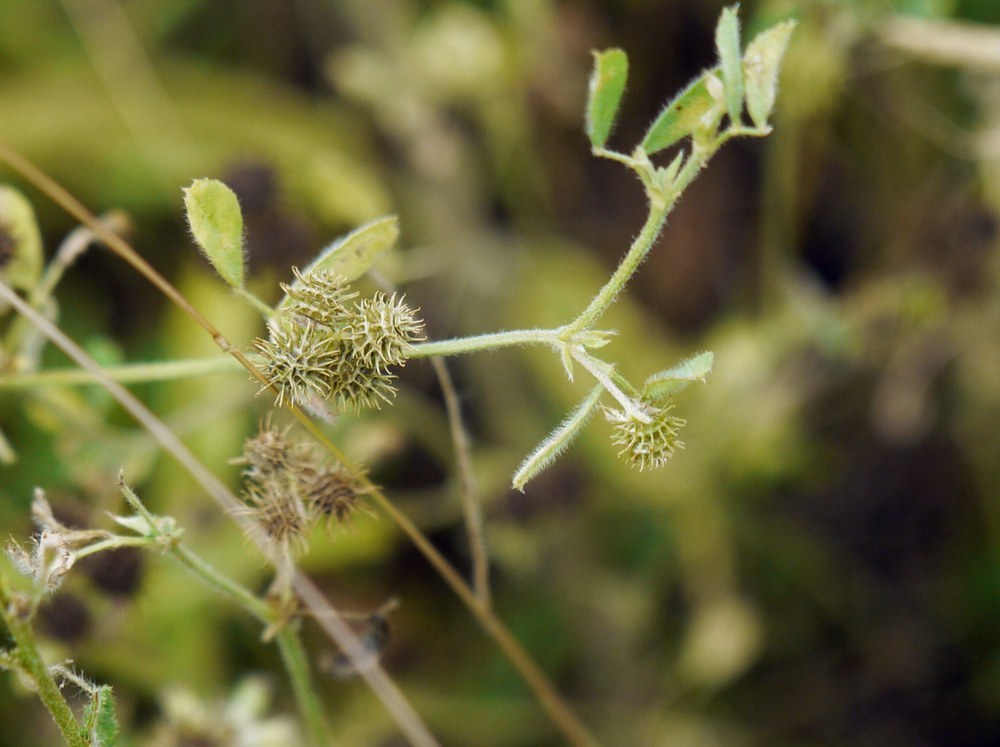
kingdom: Plantae
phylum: Tracheophyta
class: Magnoliopsida
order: Fabales
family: Fabaceae
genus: Medicago
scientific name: Medicago minima
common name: Little bur-clover
